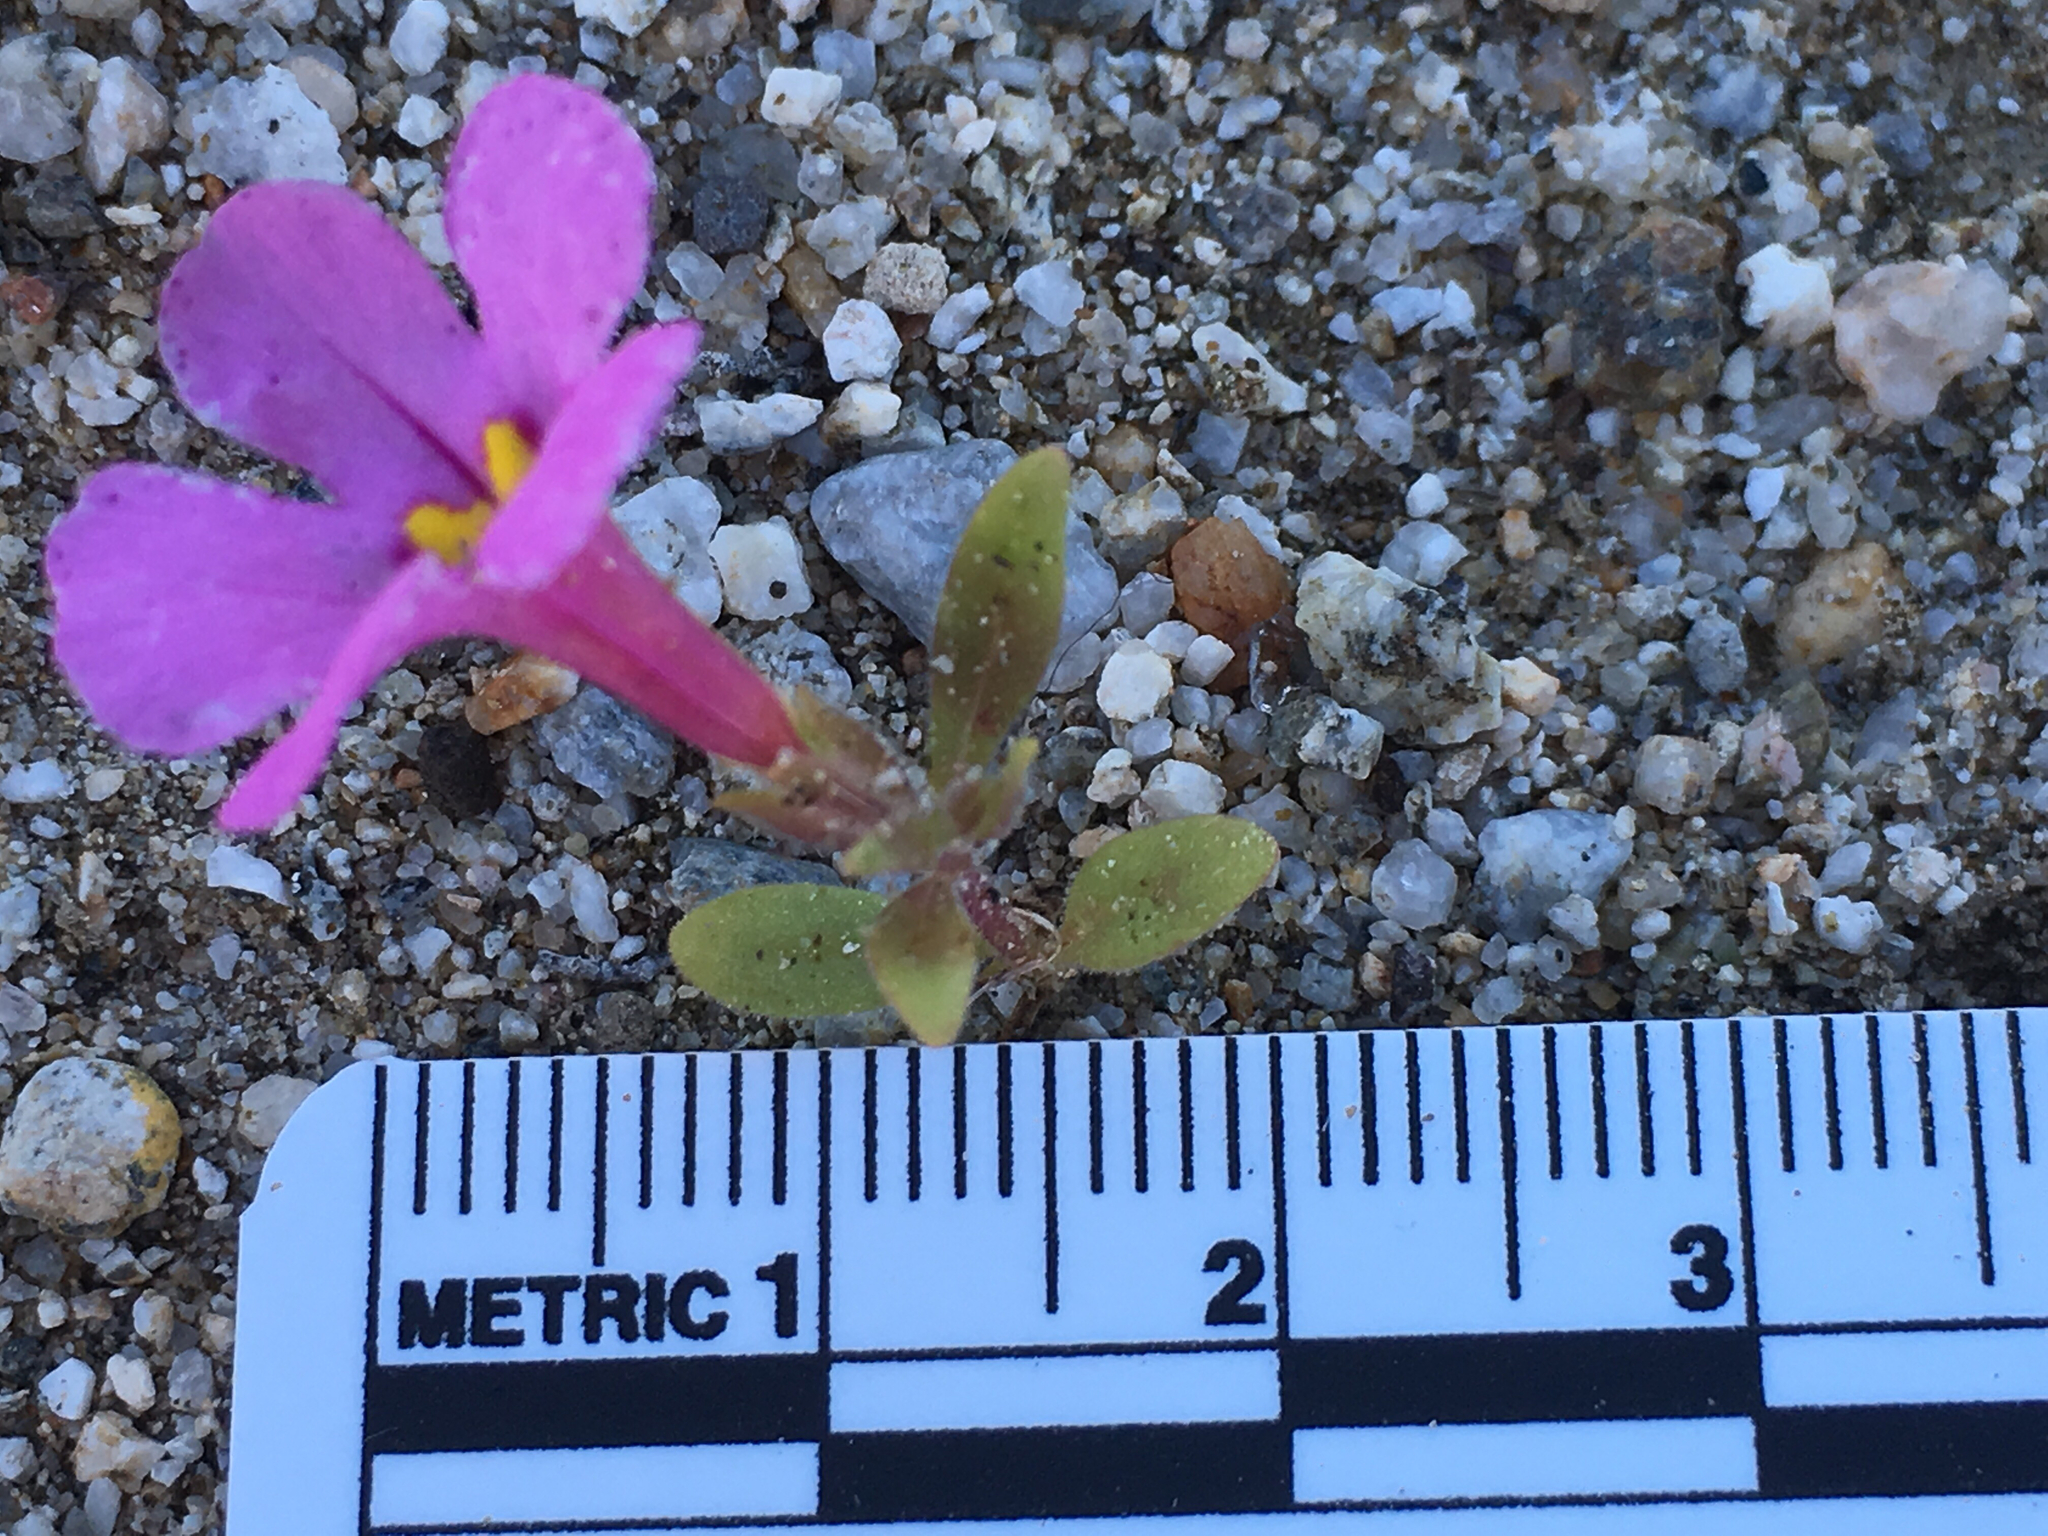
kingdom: Plantae
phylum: Tracheophyta
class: Magnoliopsida
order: Lamiales
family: Phrymaceae
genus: Diplacus
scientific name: Diplacus bigelovii
